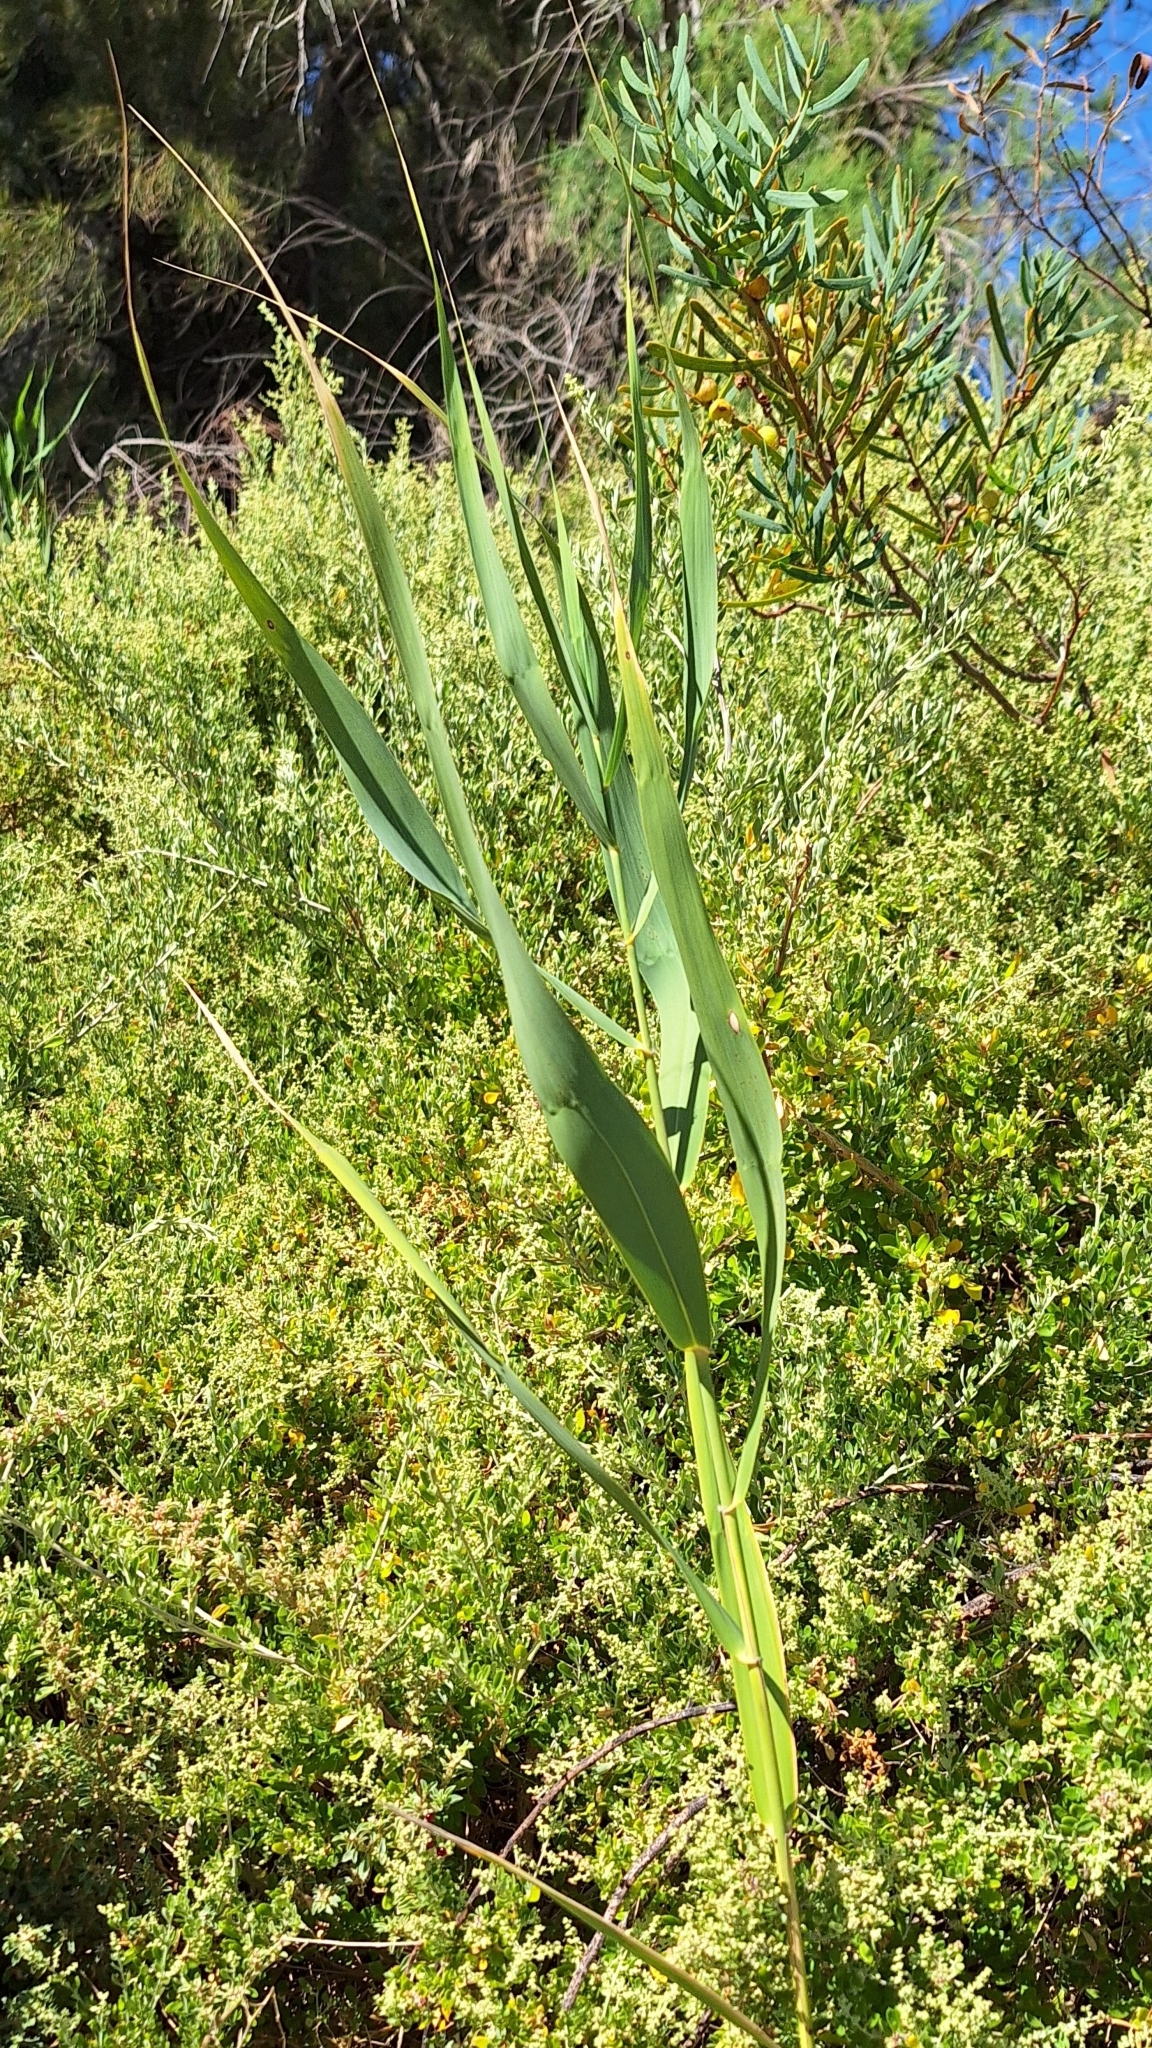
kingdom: Plantae
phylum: Tracheophyta
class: Liliopsida
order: Poales
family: Poaceae
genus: Phragmites
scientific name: Phragmites australis
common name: Common reed
